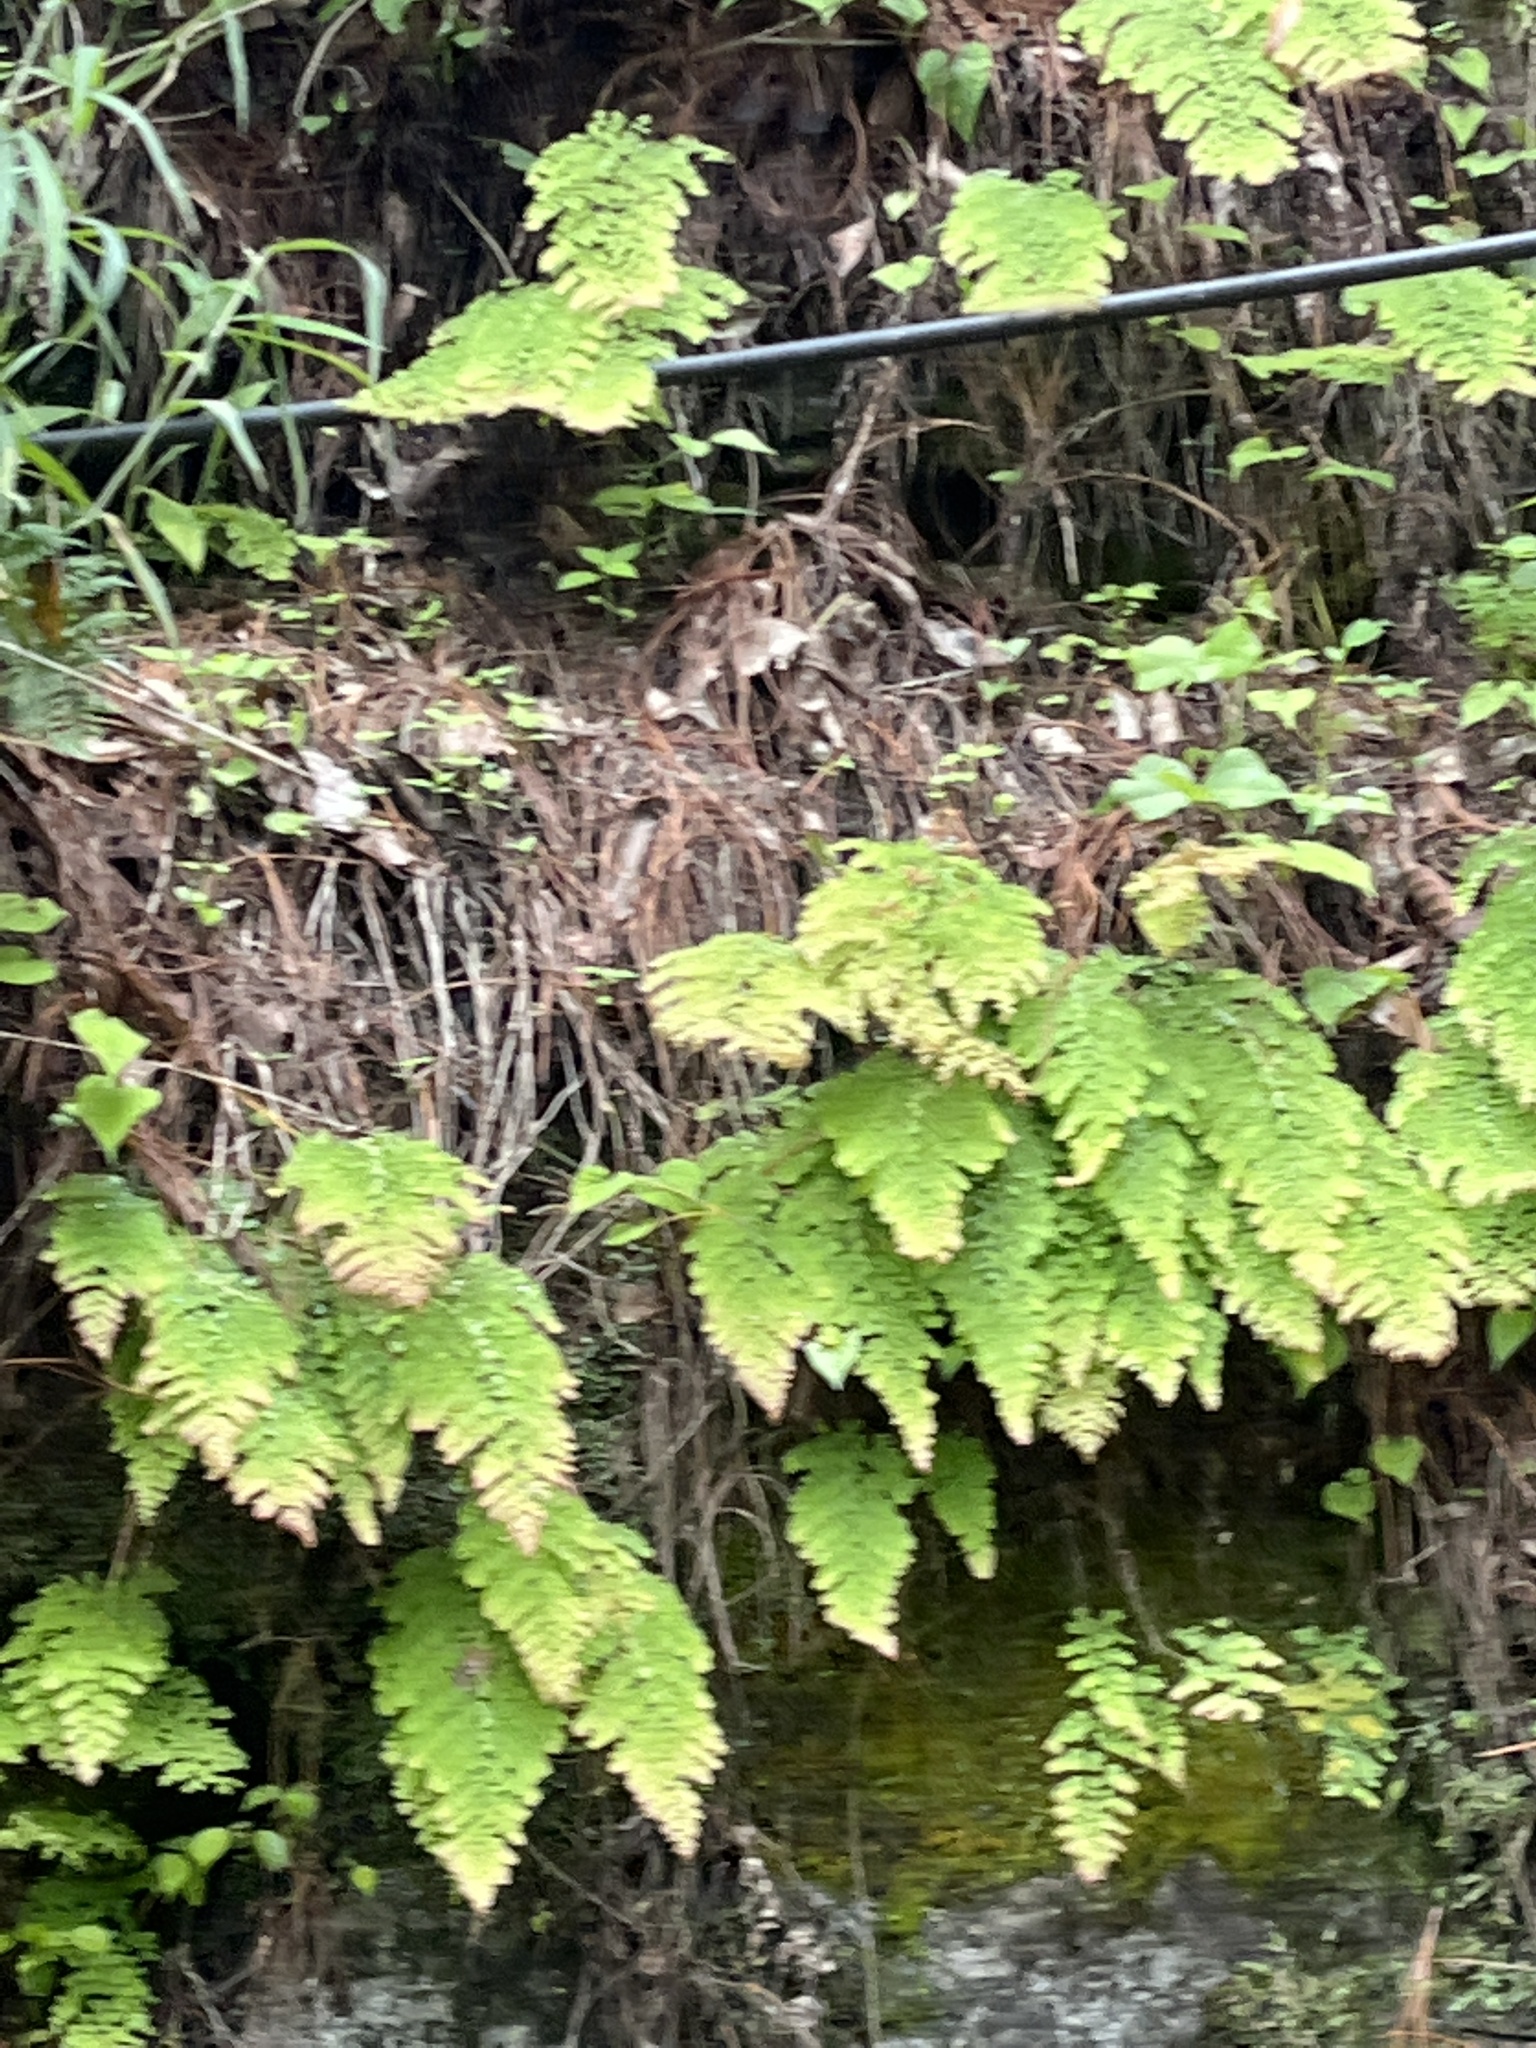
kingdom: Plantae
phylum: Tracheophyta
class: Polypodiopsida
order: Polypodiales
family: Pteridaceae
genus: Adiantum
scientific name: Adiantum concinnum
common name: Brittle maidenhair fern
